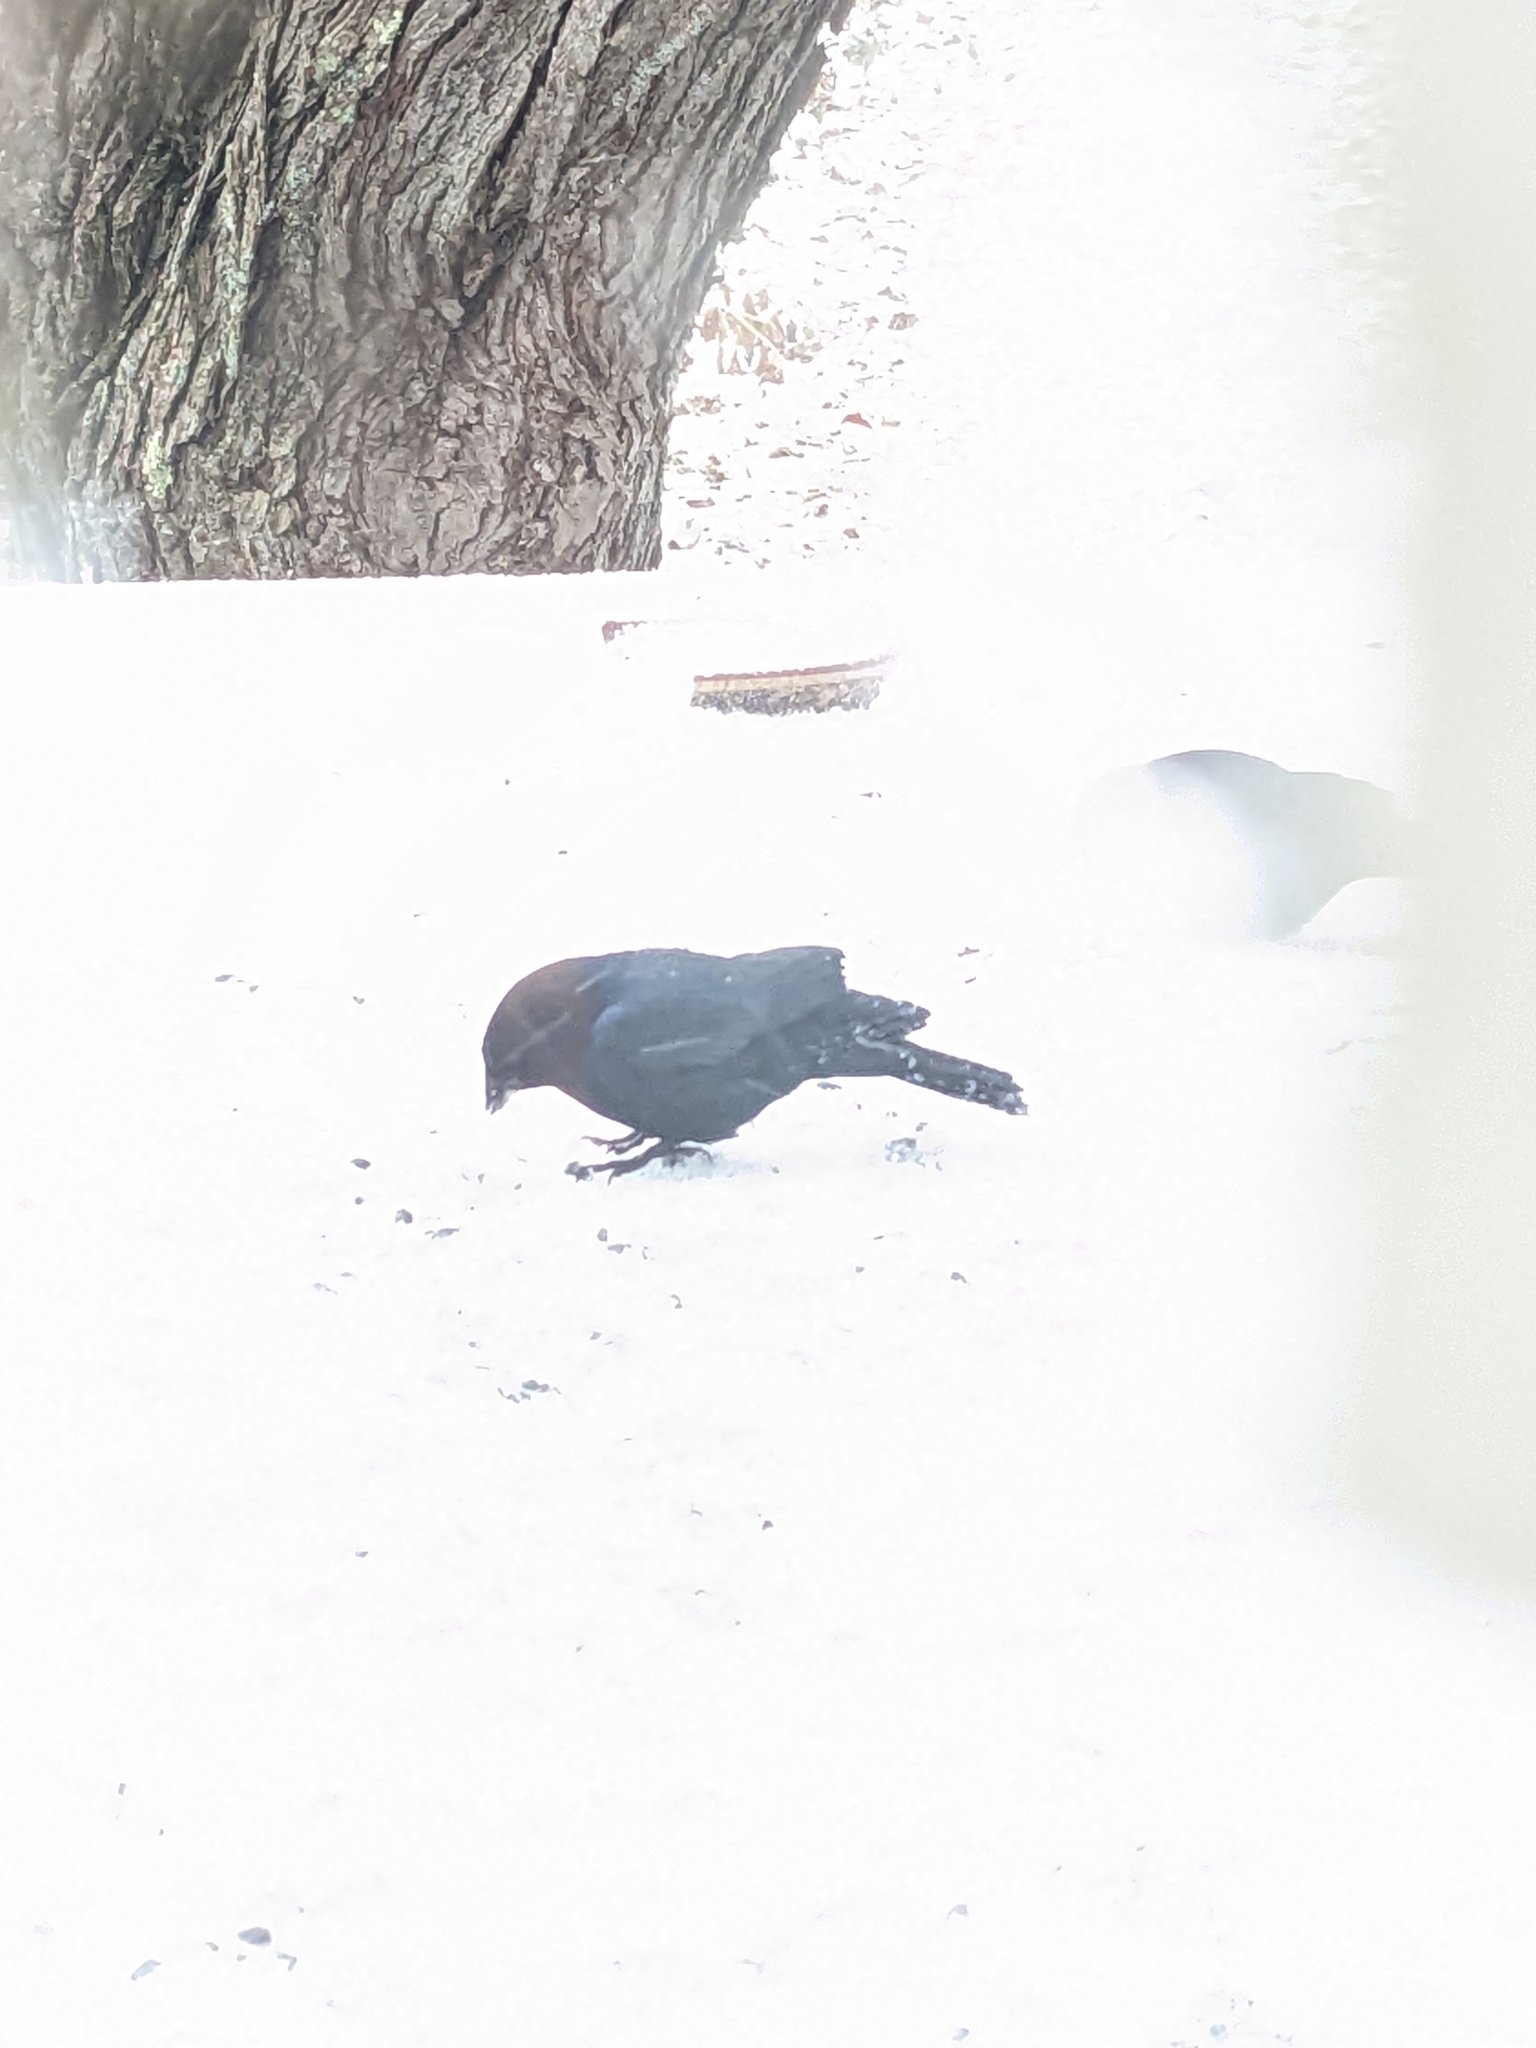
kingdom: Animalia
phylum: Chordata
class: Aves
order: Passeriformes
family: Icteridae
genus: Molothrus
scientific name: Molothrus ater
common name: Brown-headed cowbird
